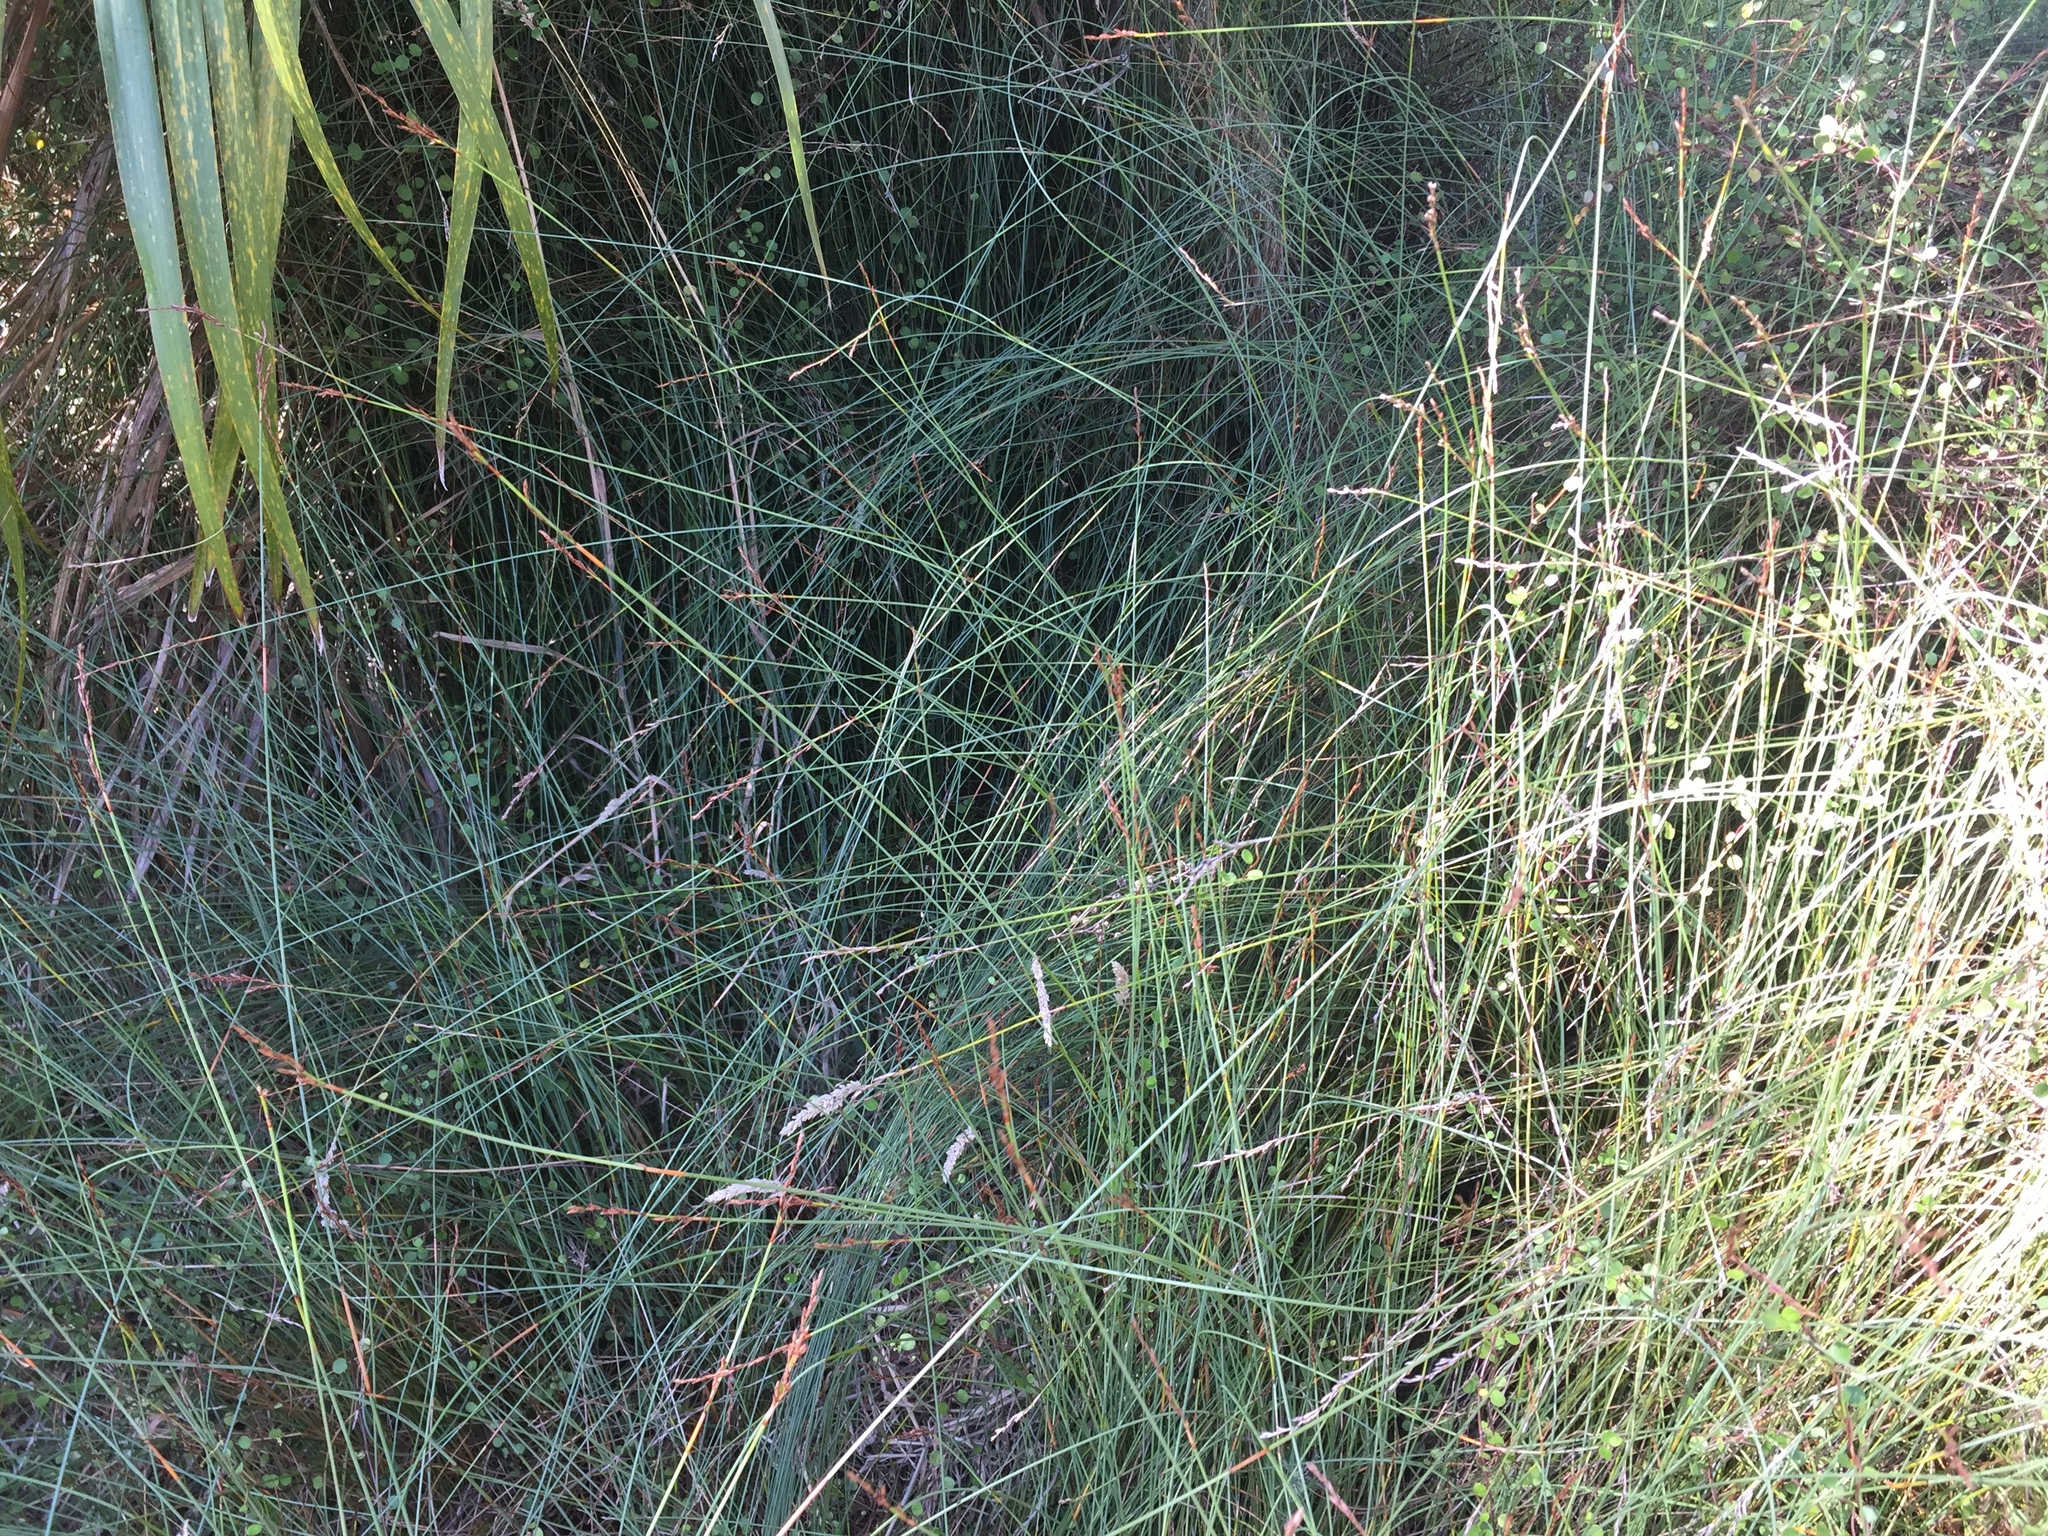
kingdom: Plantae
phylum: Tracheophyta
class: Liliopsida
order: Poales
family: Cyperaceae
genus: Machaerina
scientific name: Machaerina juncea
